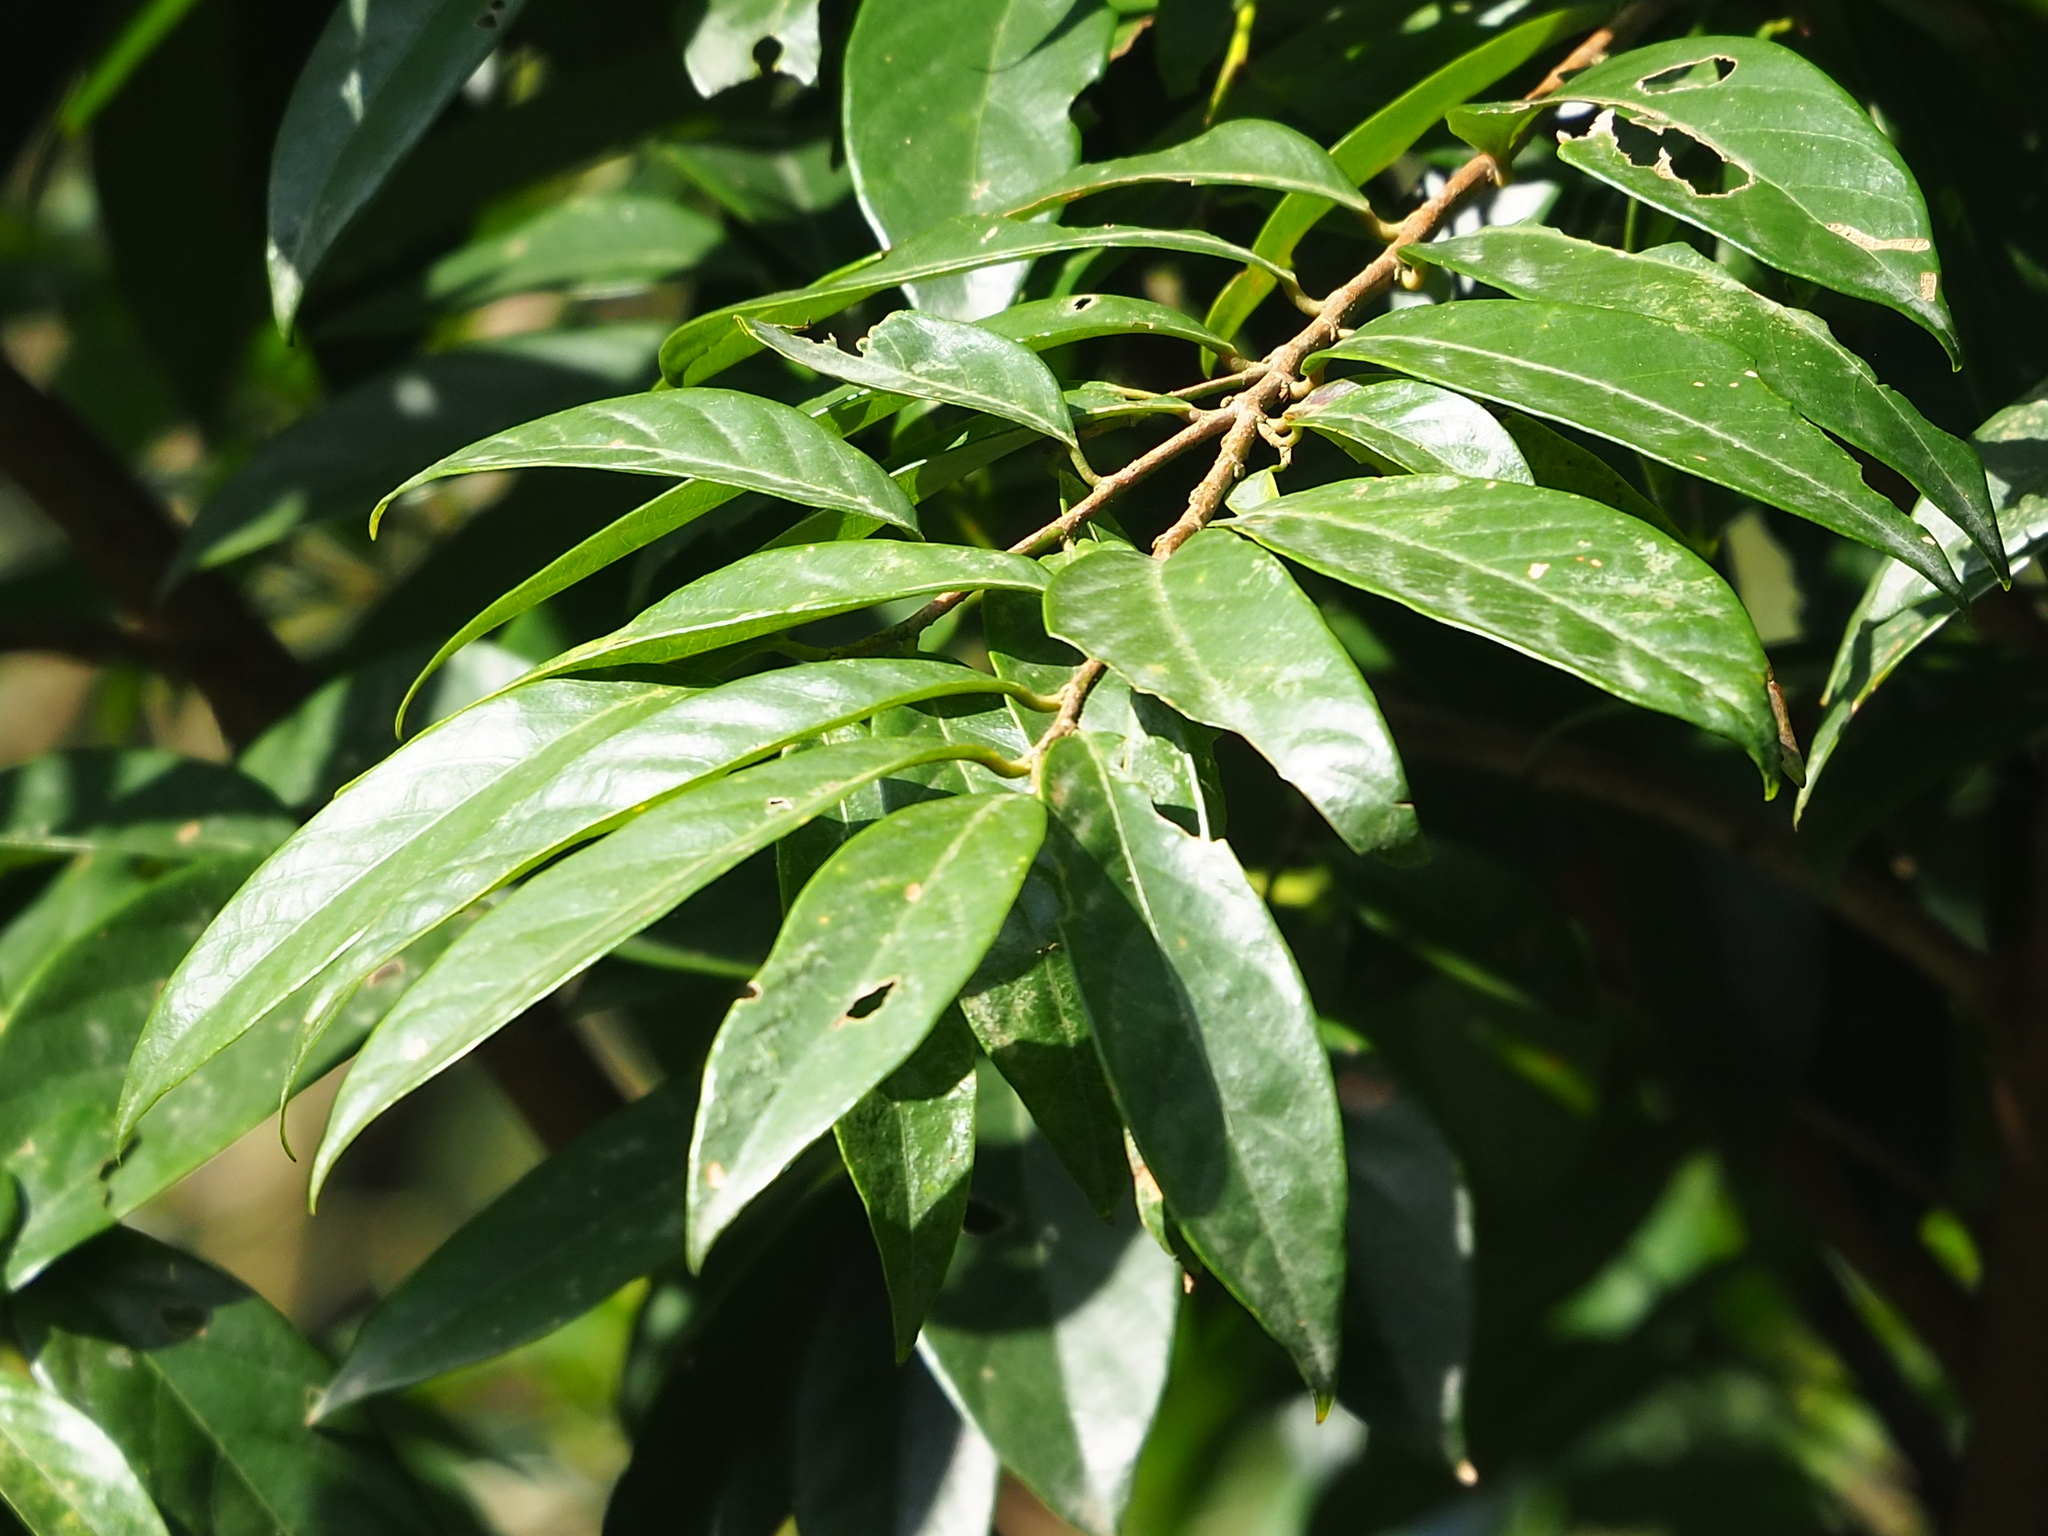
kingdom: Plantae
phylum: Tracheophyta
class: Magnoliopsida
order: Malpighiales
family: Phyllanthaceae
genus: Bridelia
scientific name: Bridelia balansae
